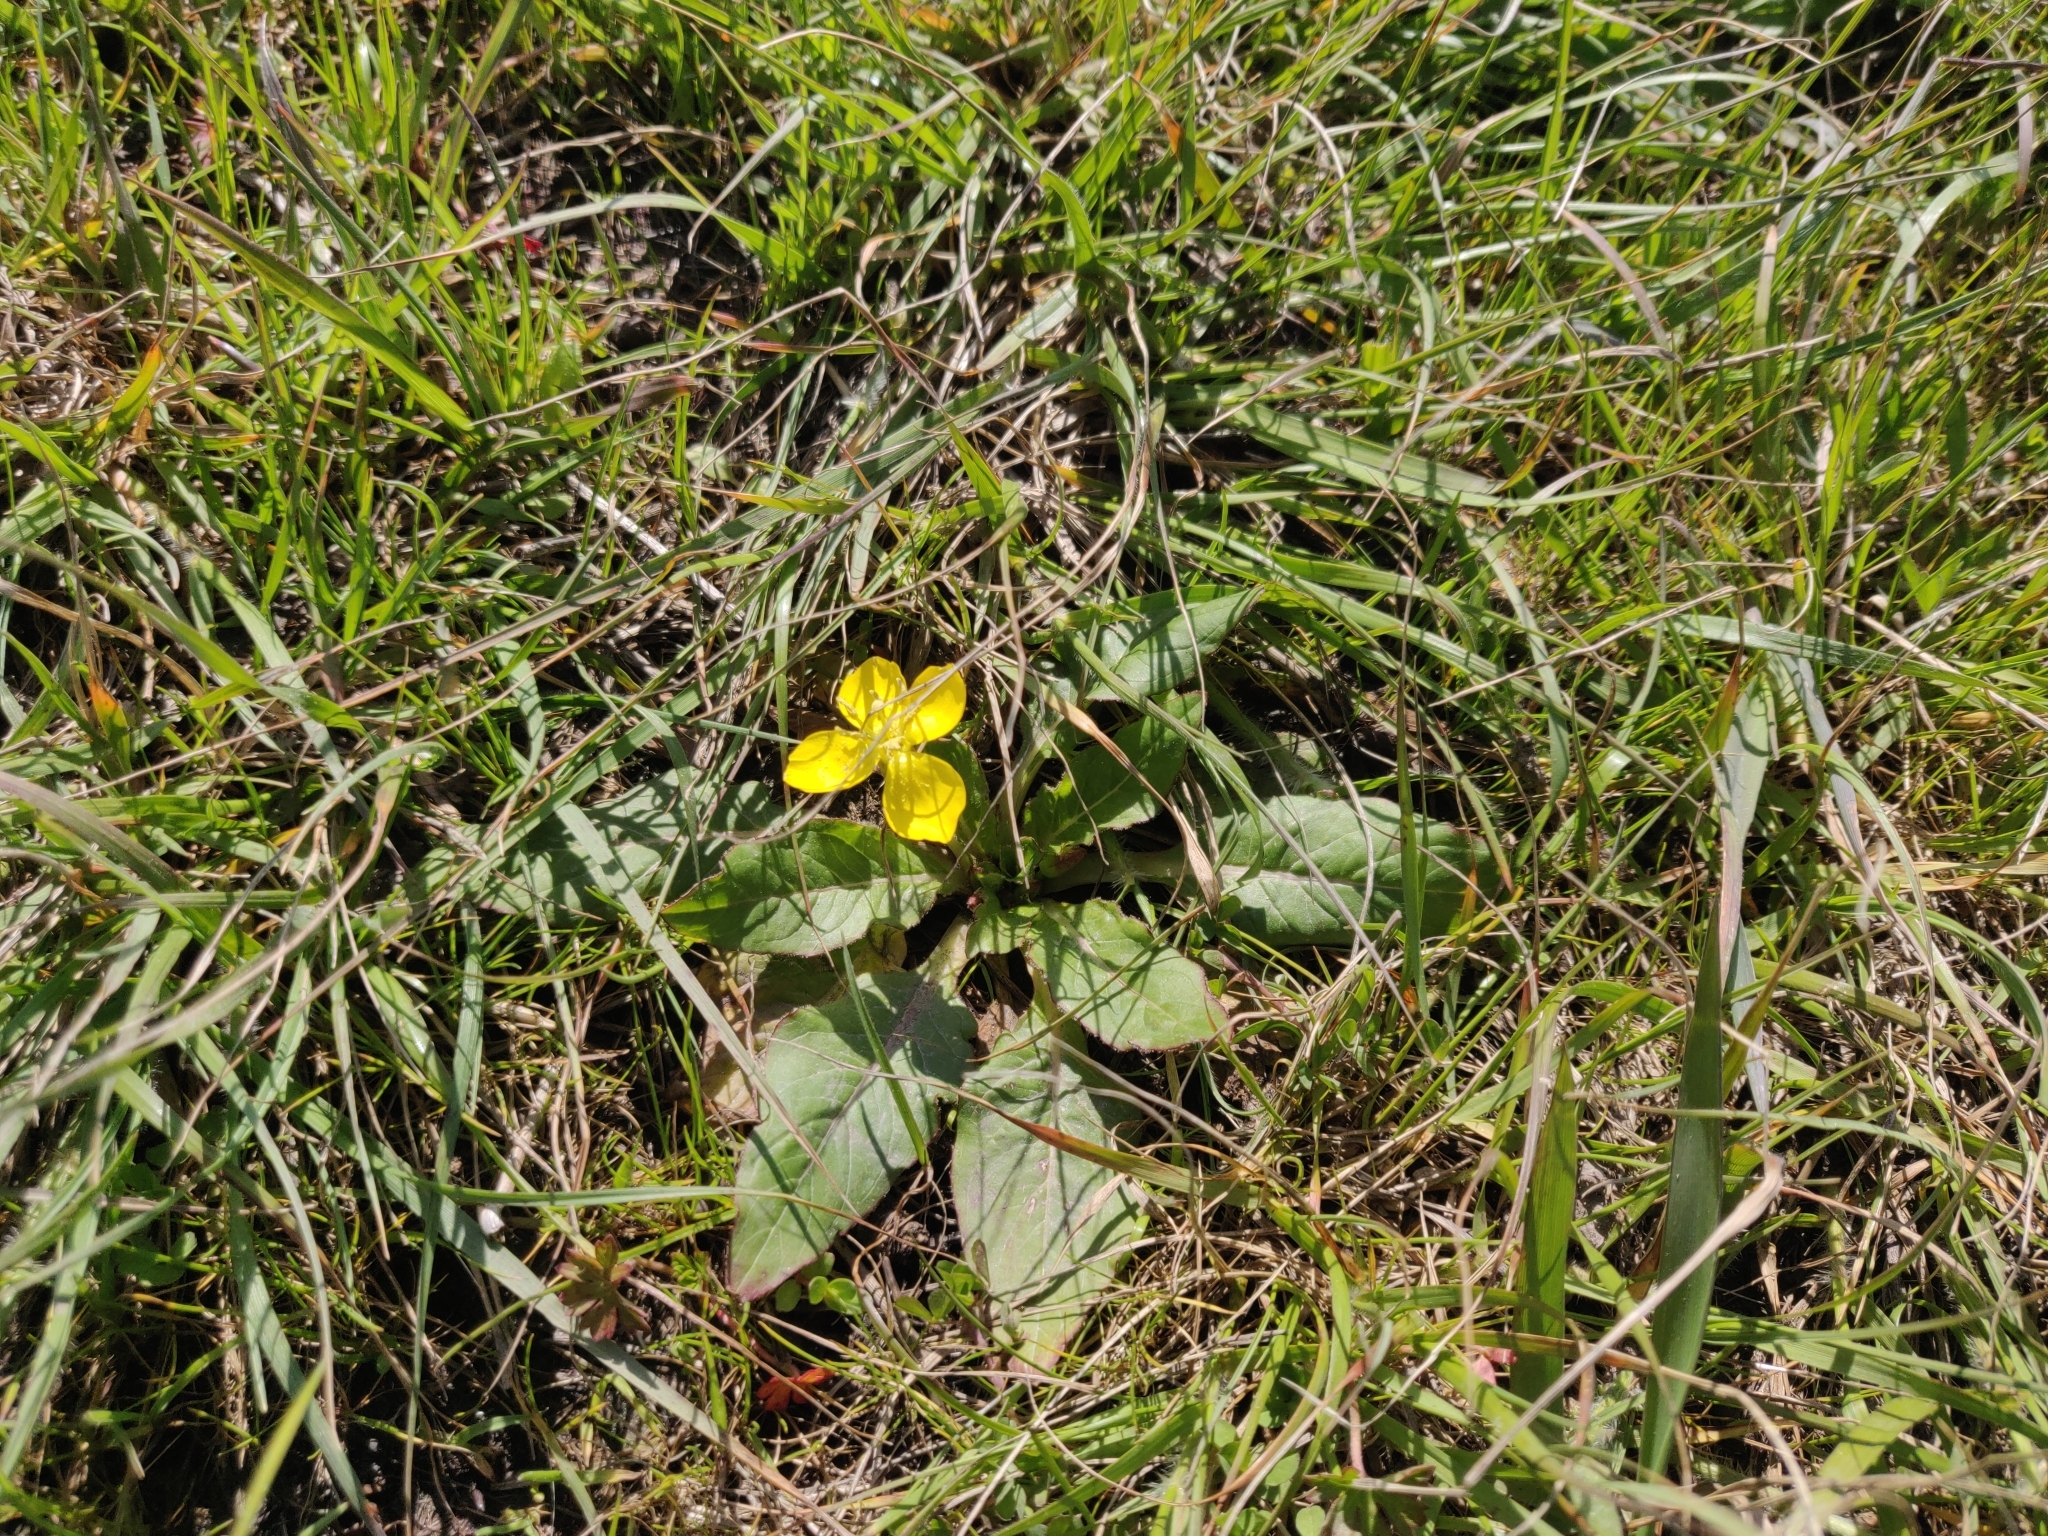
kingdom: Plantae
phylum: Tracheophyta
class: Magnoliopsida
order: Myrtales
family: Onagraceae
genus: Taraxia
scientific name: Taraxia ovata
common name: Goldeneggs
